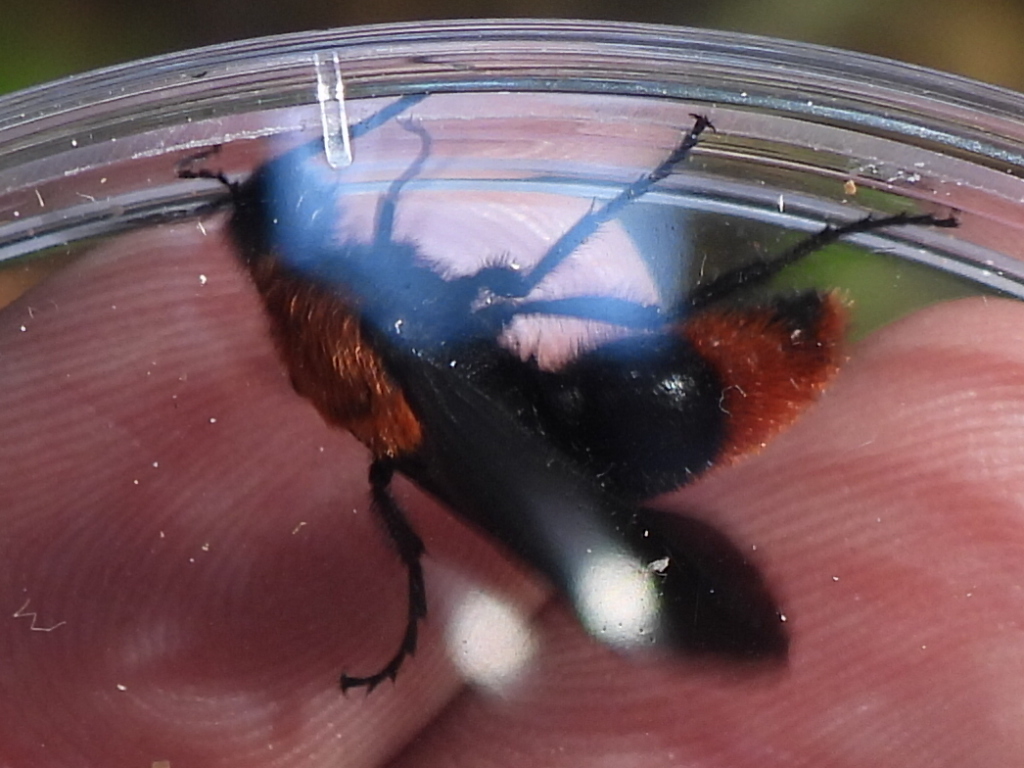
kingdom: Animalia
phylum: Arthropoda
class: Insecta
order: Hymenoptera
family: Mutillidae
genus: Dasymutilla
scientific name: Dasymutilla occidentalis
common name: Common eastern velvet ant
